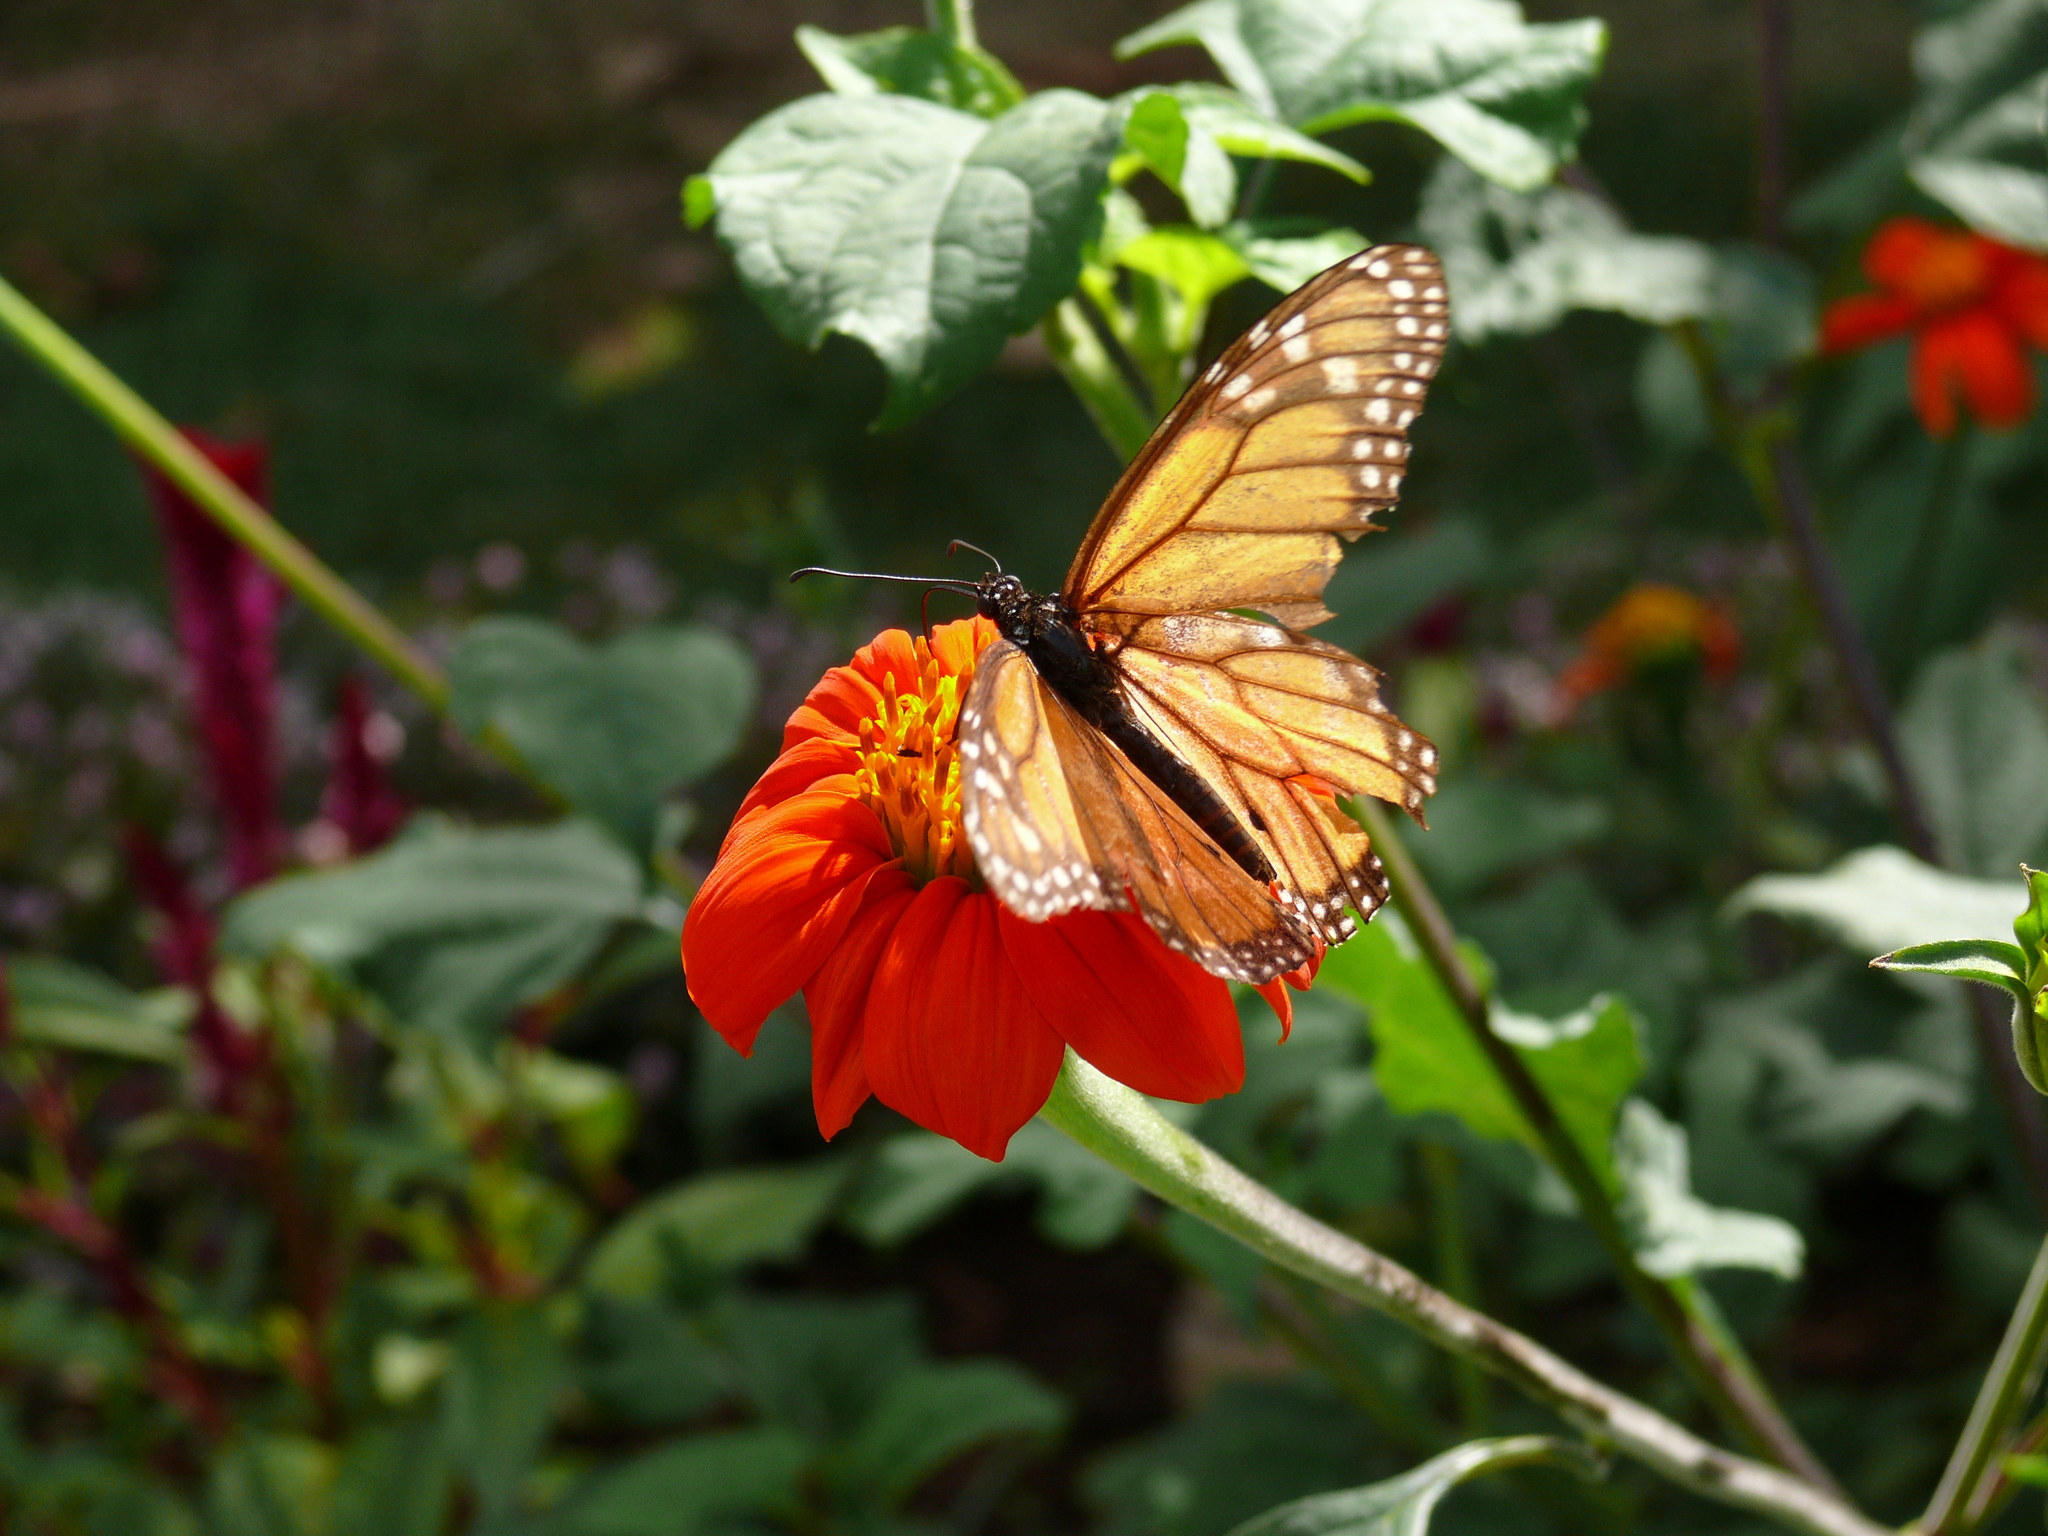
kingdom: Animalia
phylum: Arthropoda
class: Insecta
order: Lepidoptera
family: Nymphalidae
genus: Danaus
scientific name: Danaus plexippus
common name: Monarch
